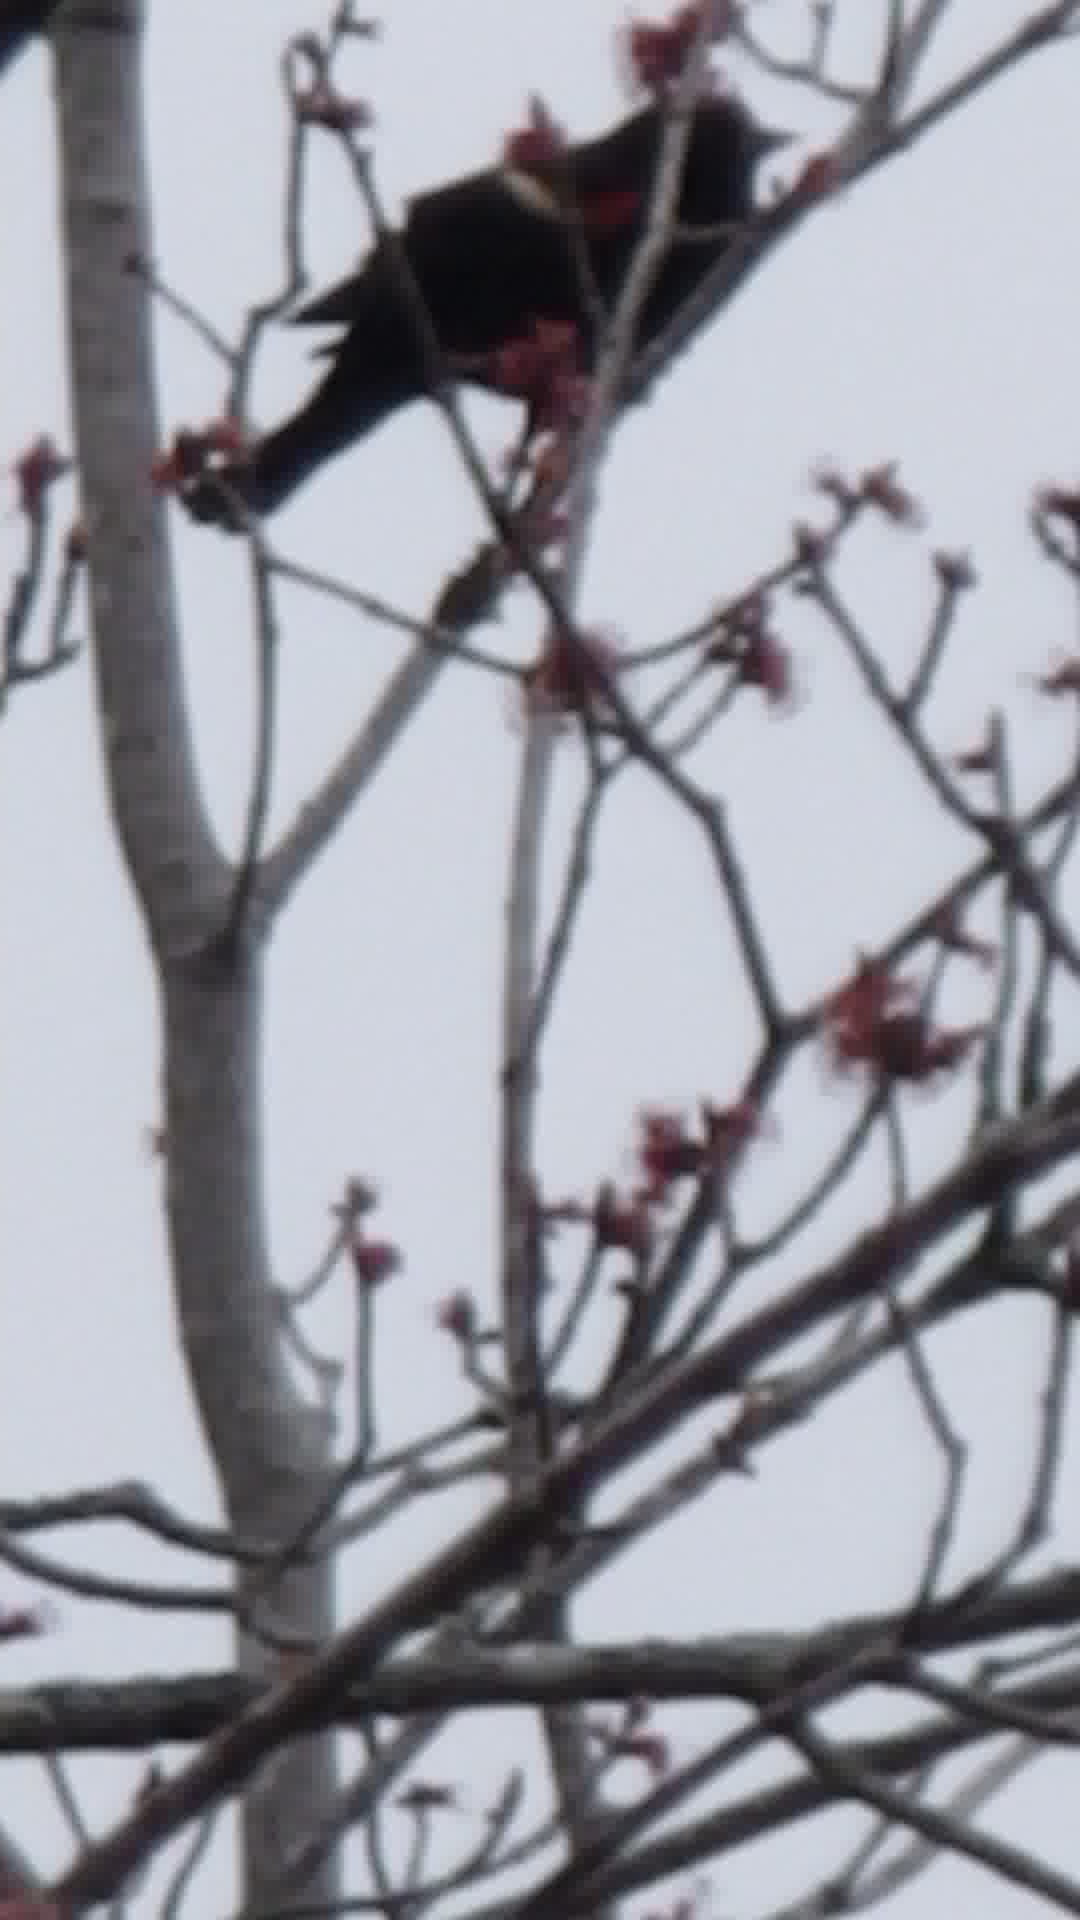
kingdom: Animalia
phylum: Chordata
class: Aves
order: Passeriformes
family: Icteridae
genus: Agelaius
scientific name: Agelaius phoeniceus
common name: Red-winged blackbird
